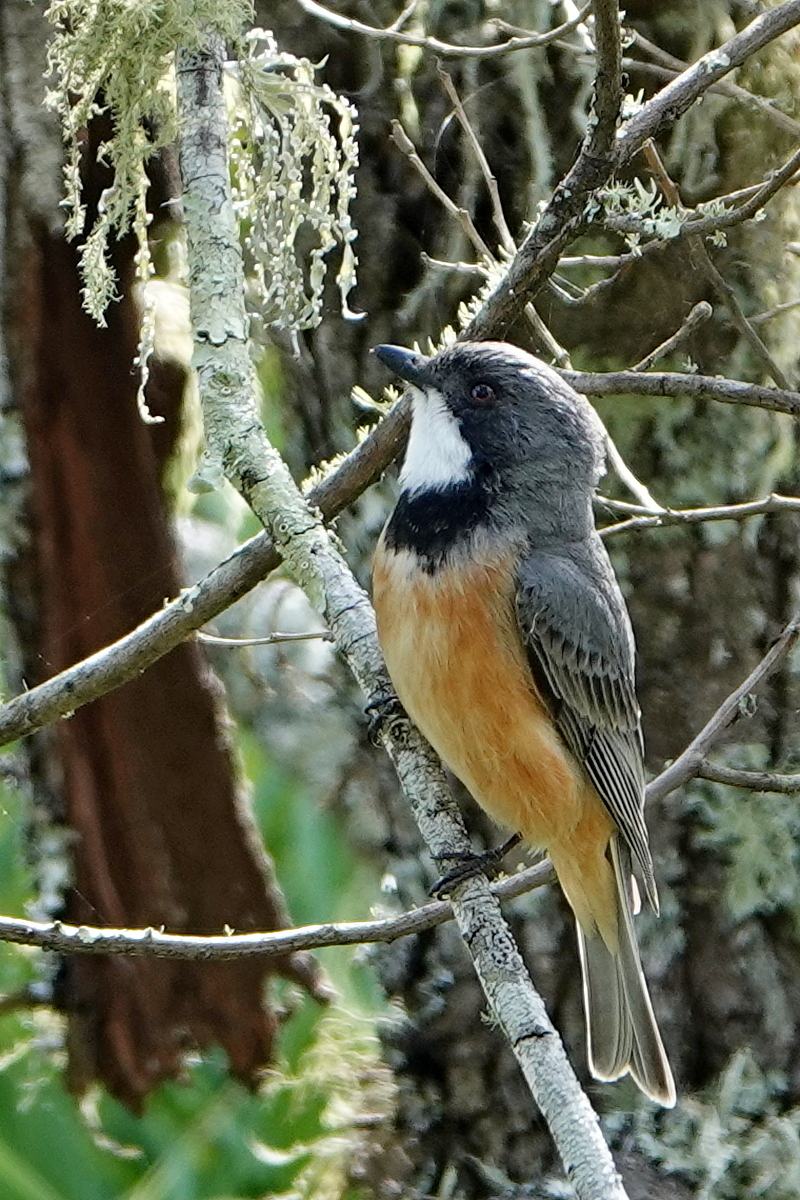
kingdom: Animalia
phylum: Chordata
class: Aves
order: Passeriformes
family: Pachycephalidae
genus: Pachycephala
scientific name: Pachycephala rufiventris
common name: Rufous whistler
